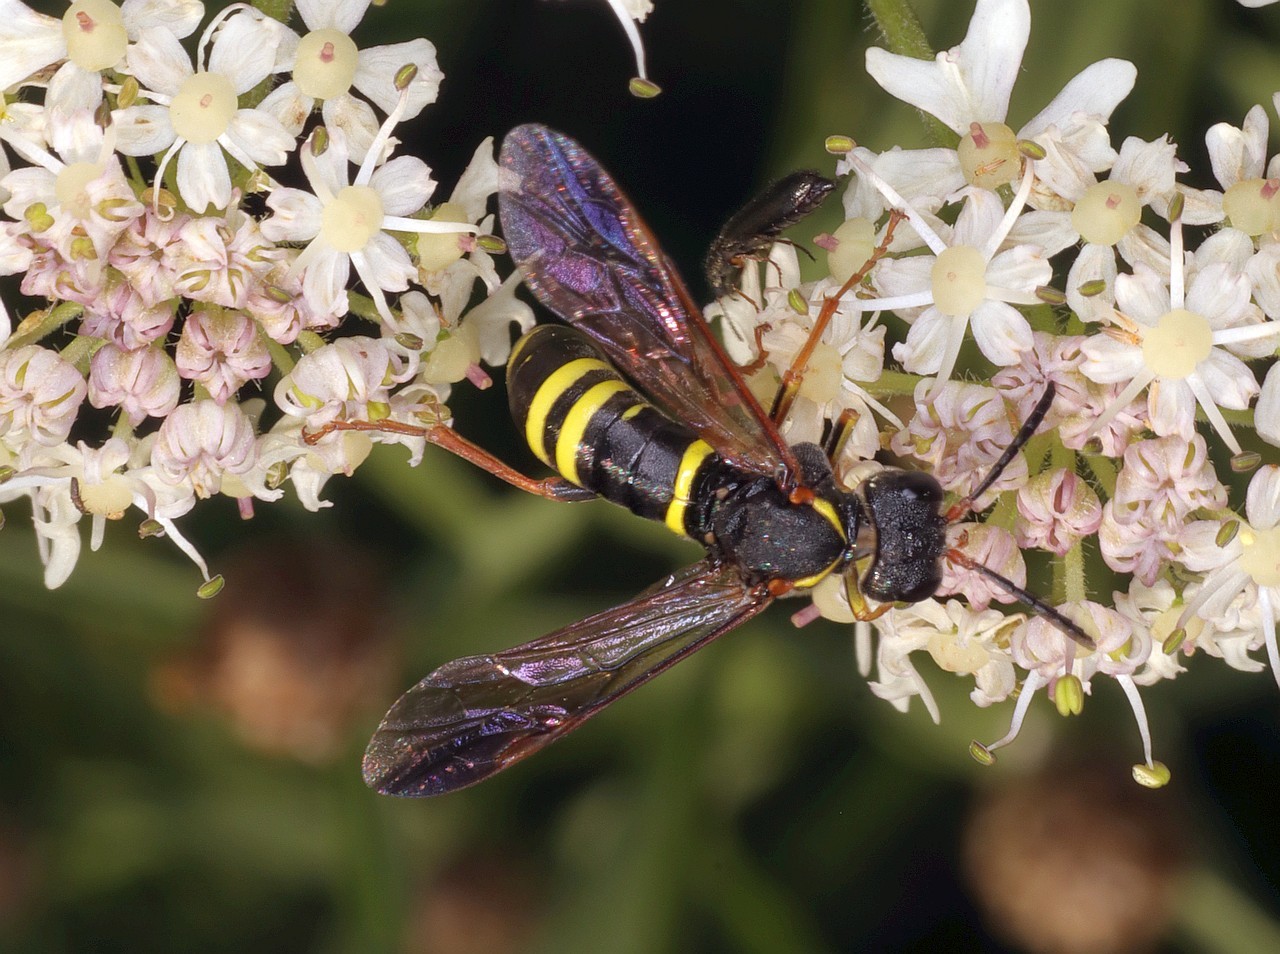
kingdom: Animalia
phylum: Arthropoda
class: Insecta
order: Hymenoptera
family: Tenthredinidae
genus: Tenthredo
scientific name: Tenthredo vespa
